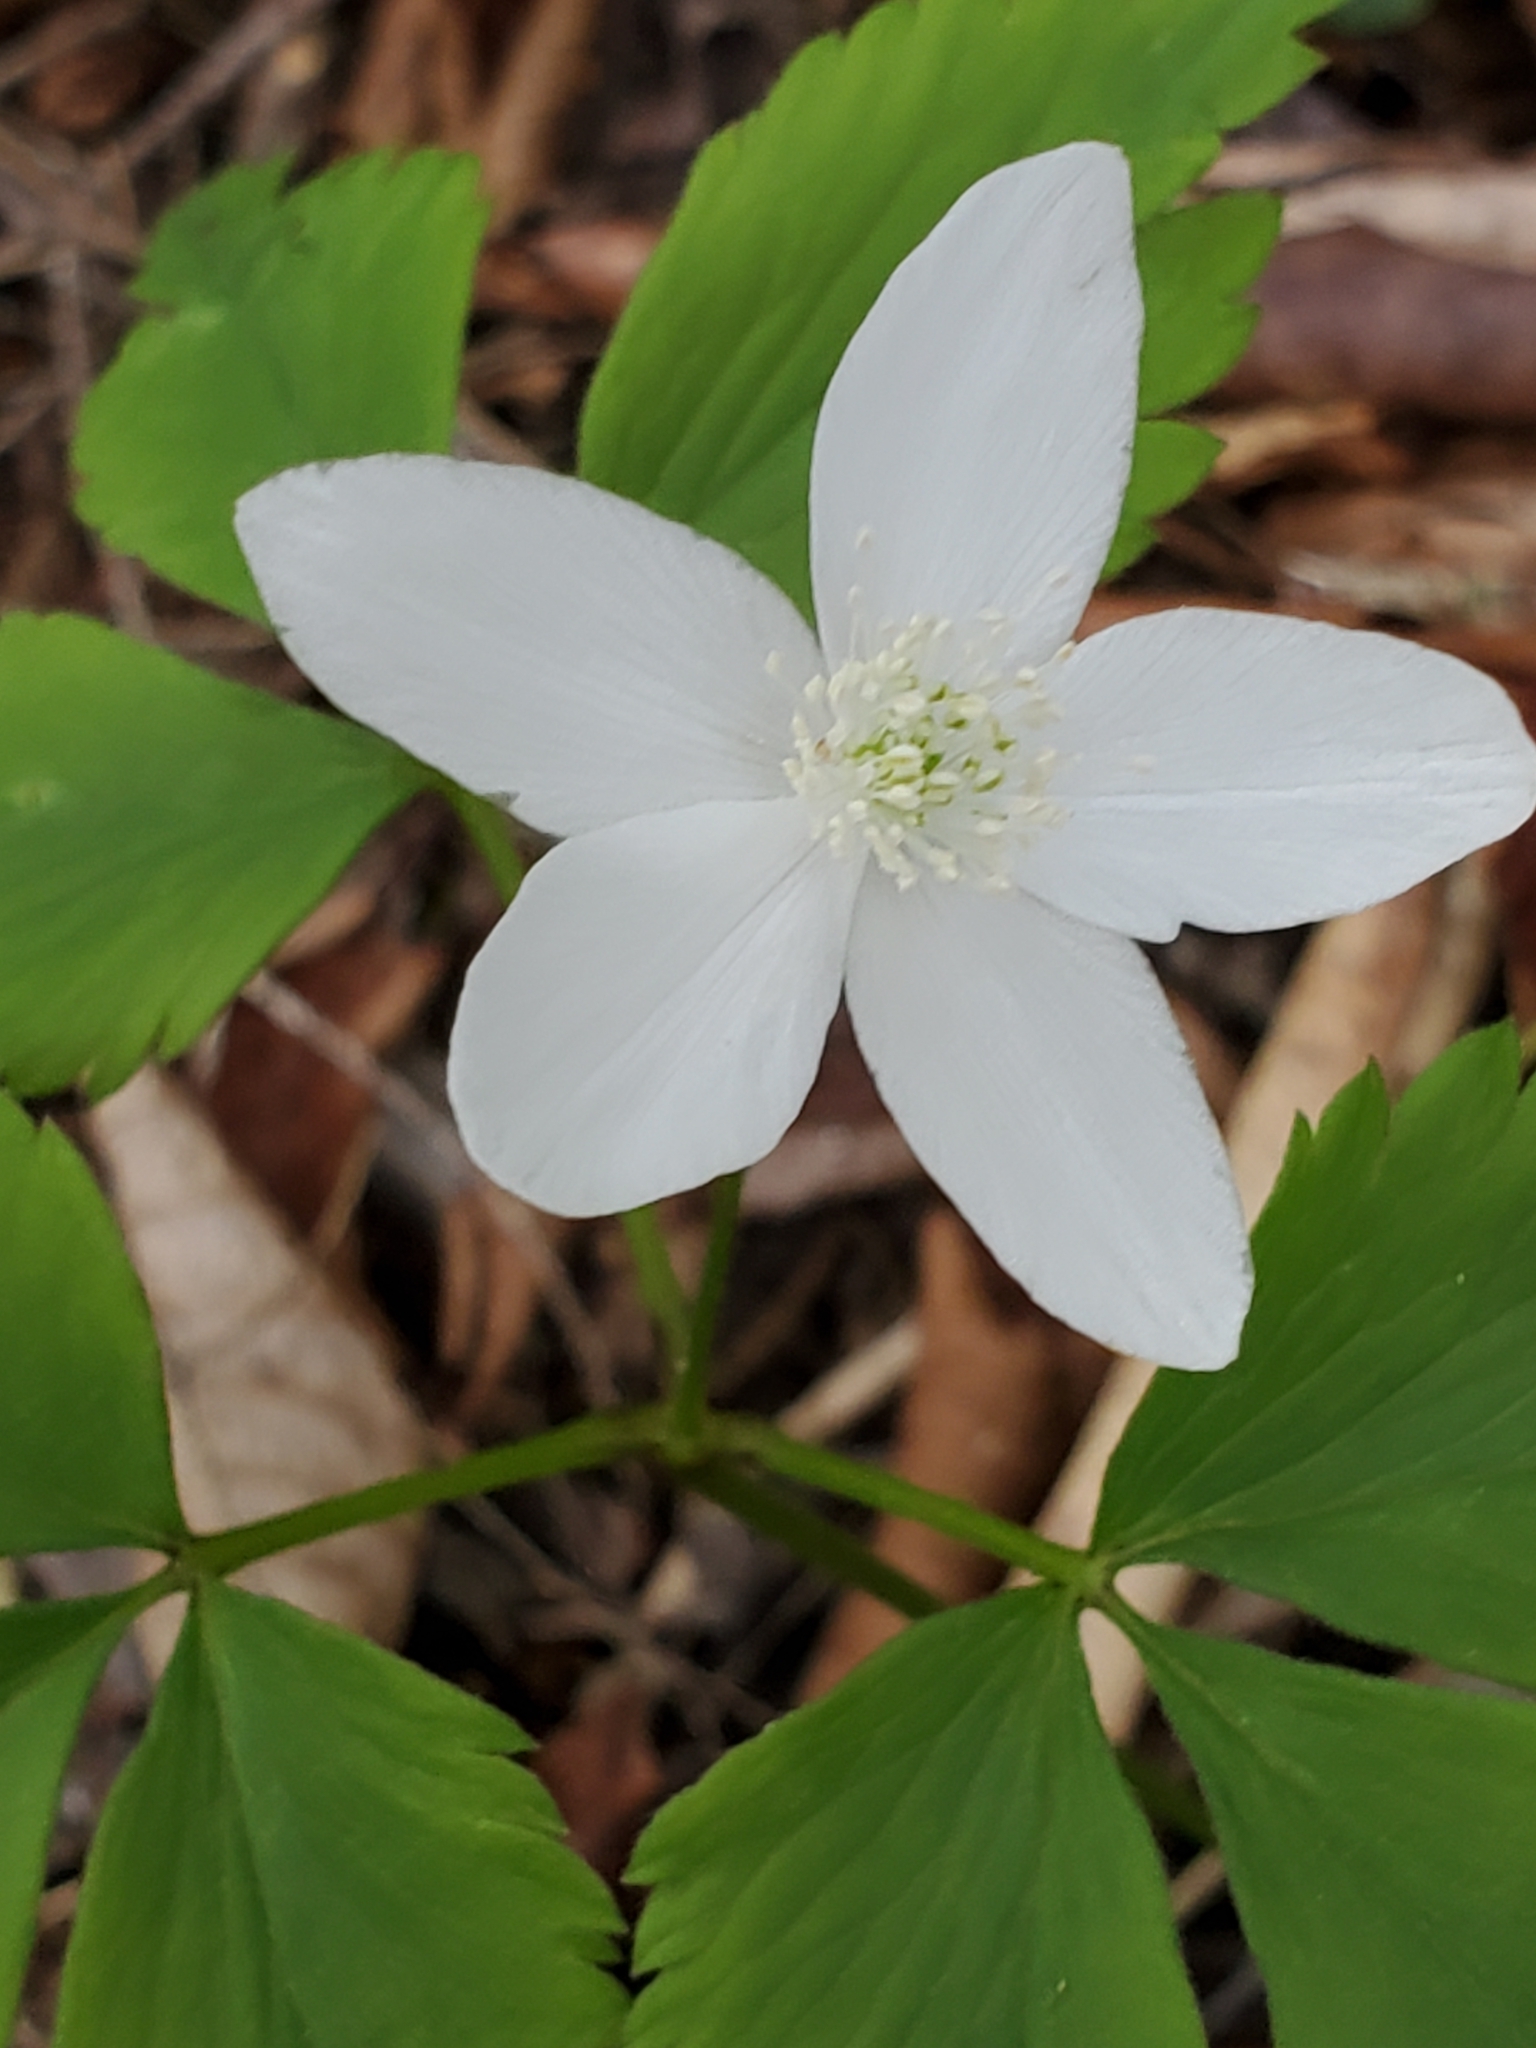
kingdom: Plantae
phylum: Tracheophyta
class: Magnoliopsida
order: Ranunculales
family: Ranunculaceae
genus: Anemone
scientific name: Anemone quinquefolia
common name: Wood anemone
